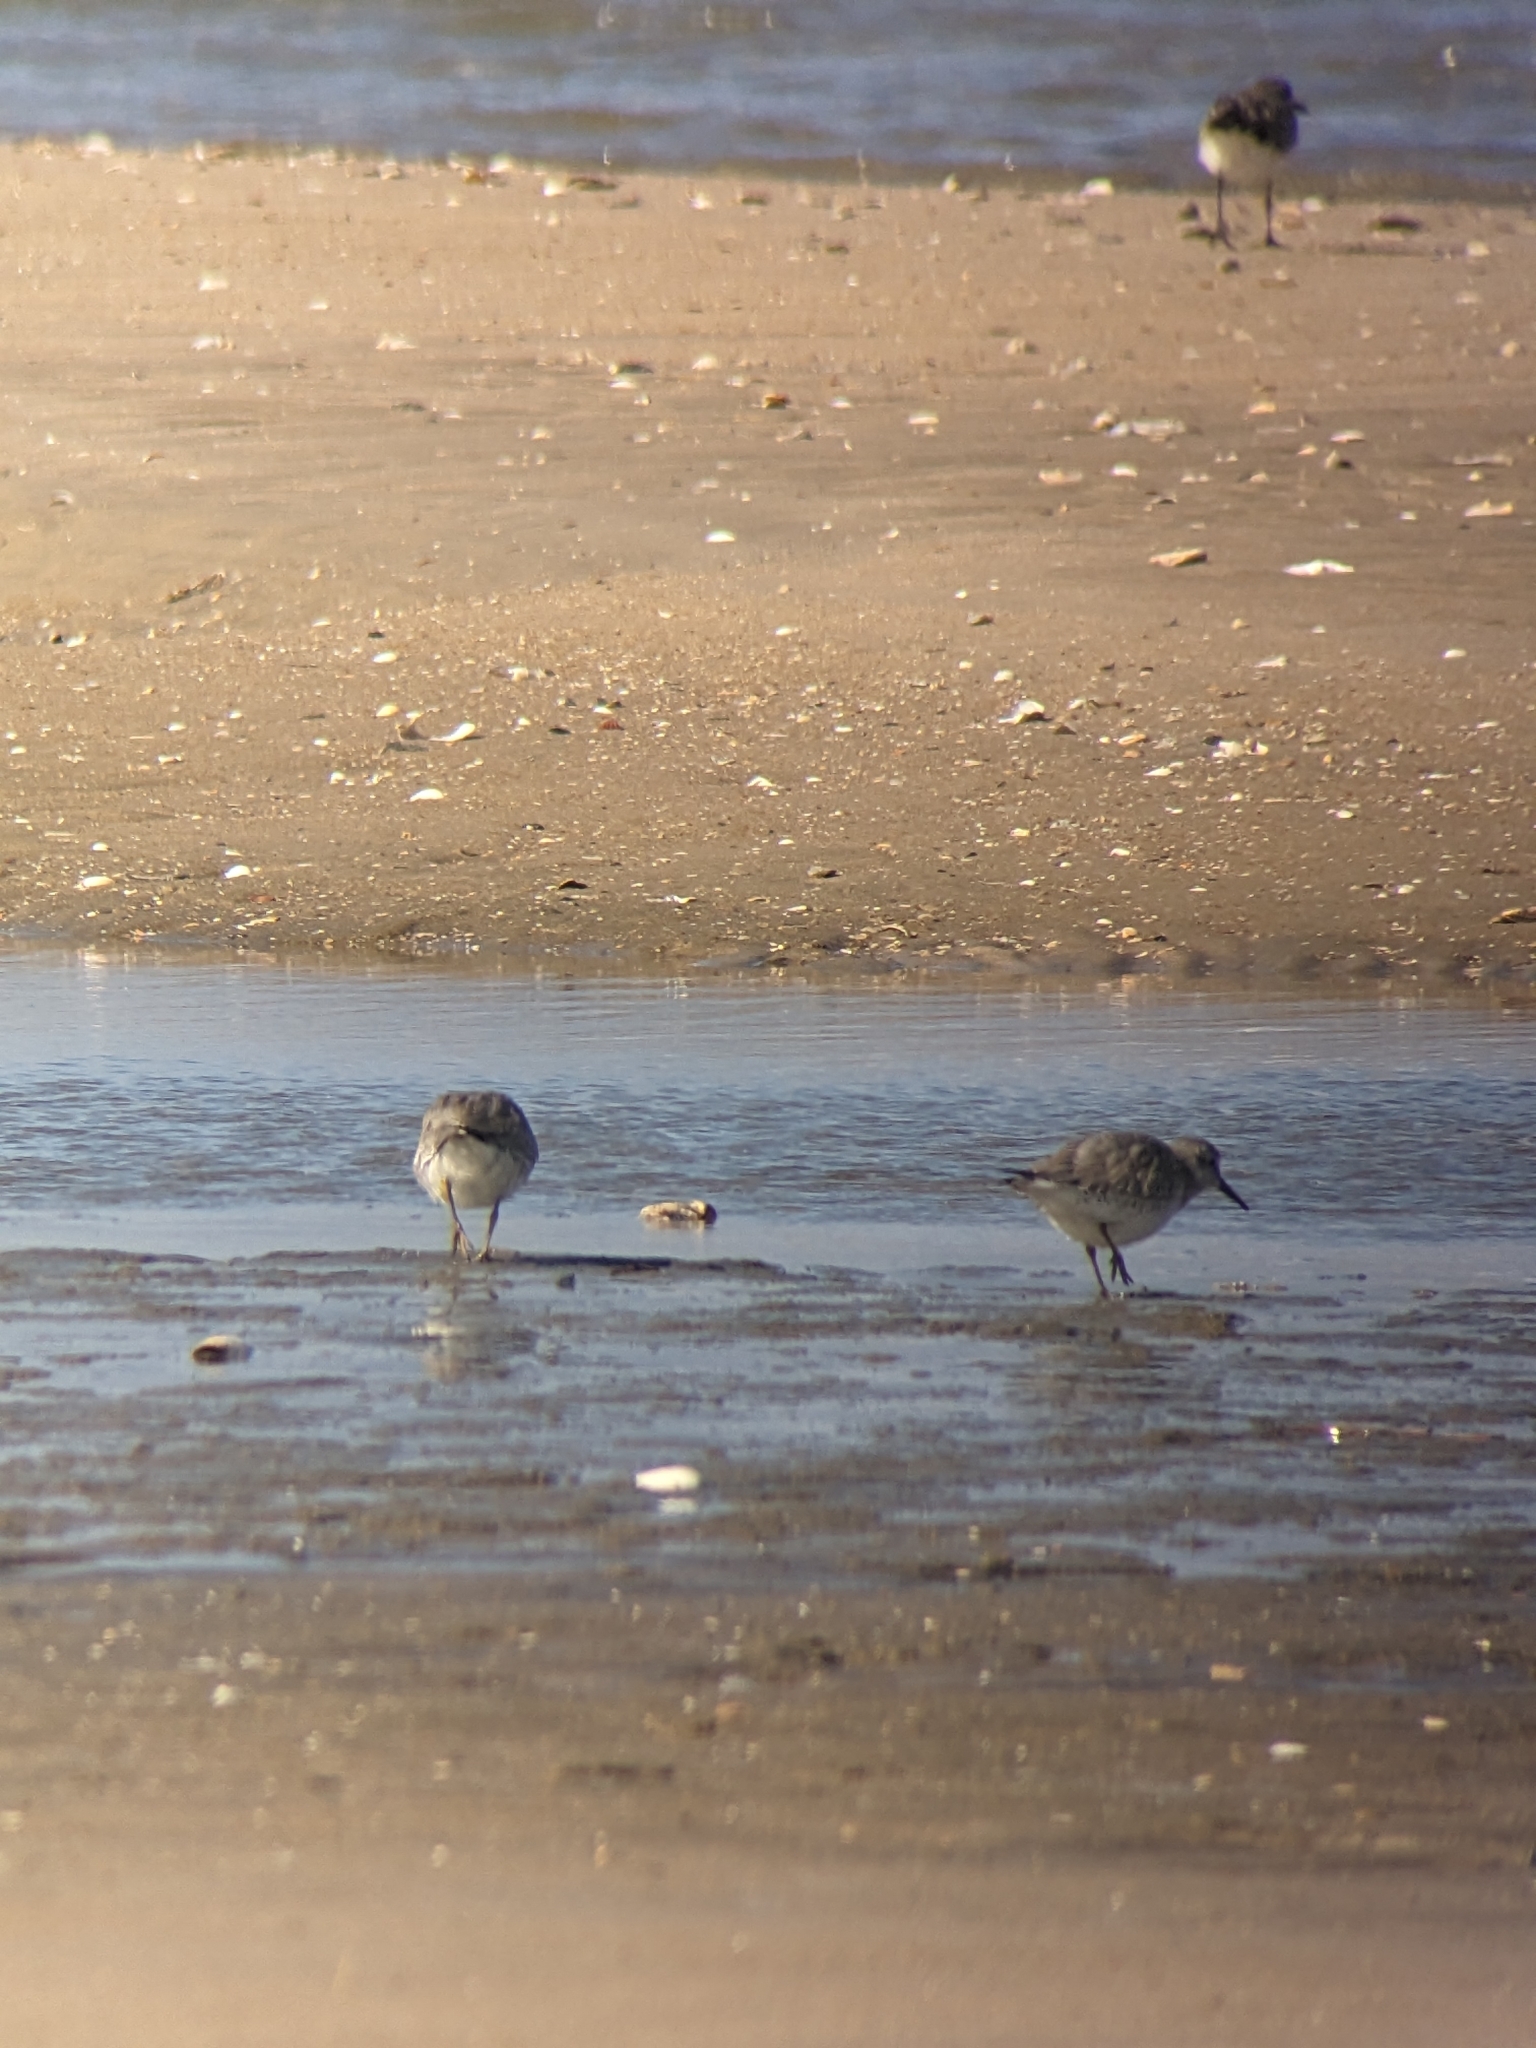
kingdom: Animalia
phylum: Chordata
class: Aves
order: Charadriiformes
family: Scolopacidae
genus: Calidris
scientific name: Calidris canutus
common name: Red knot
